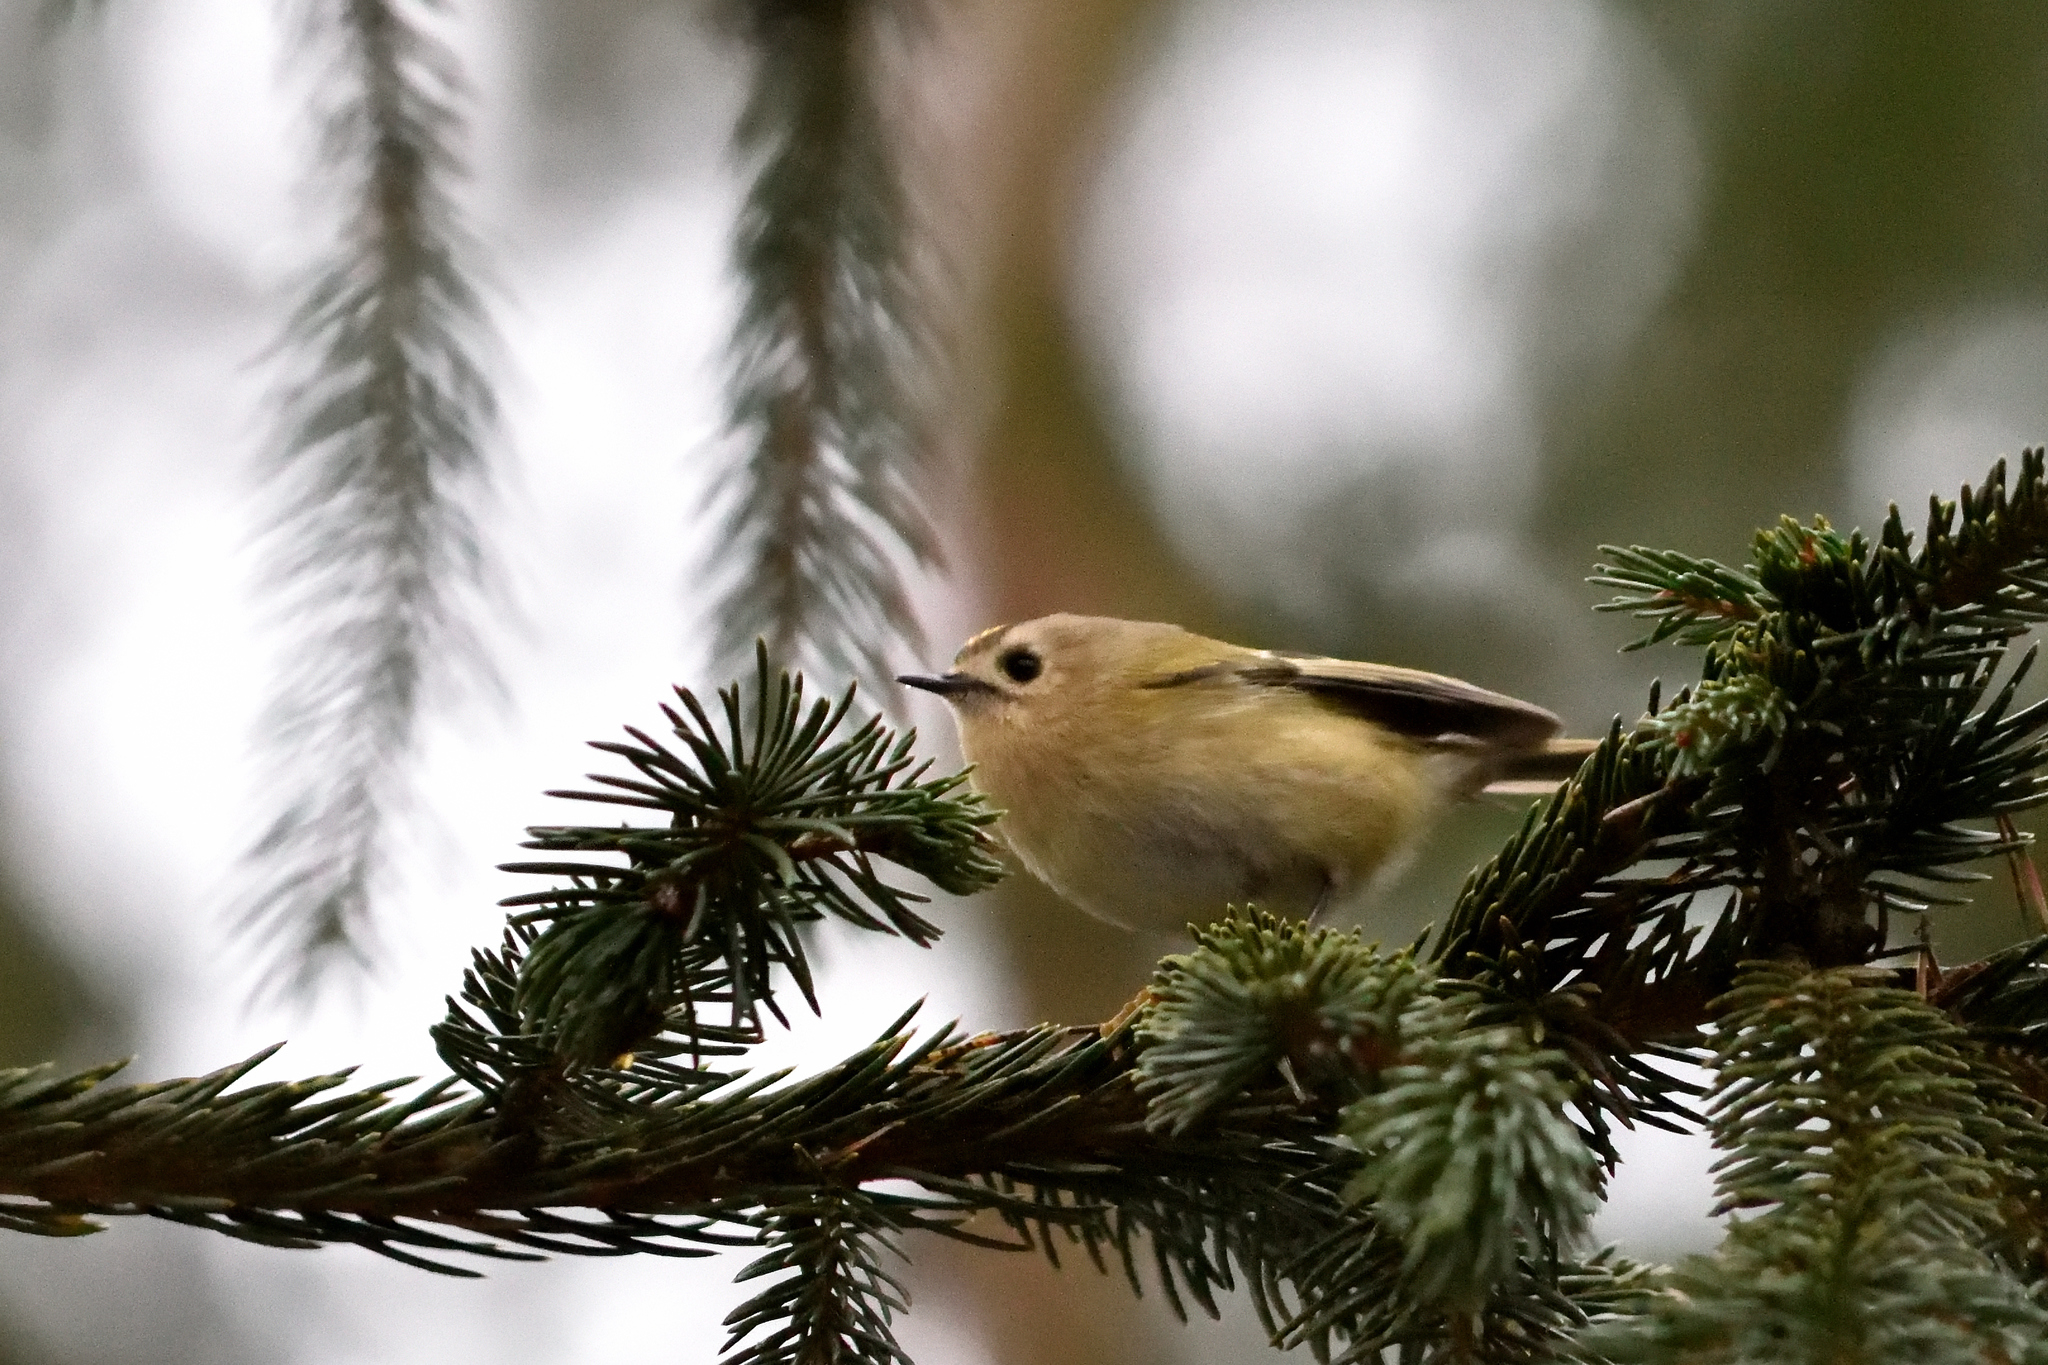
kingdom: Animalia
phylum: Chordata
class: Aves
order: Passeriformes
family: Regulidae
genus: Regulus
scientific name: Regulus regulus
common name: Goldcrest
